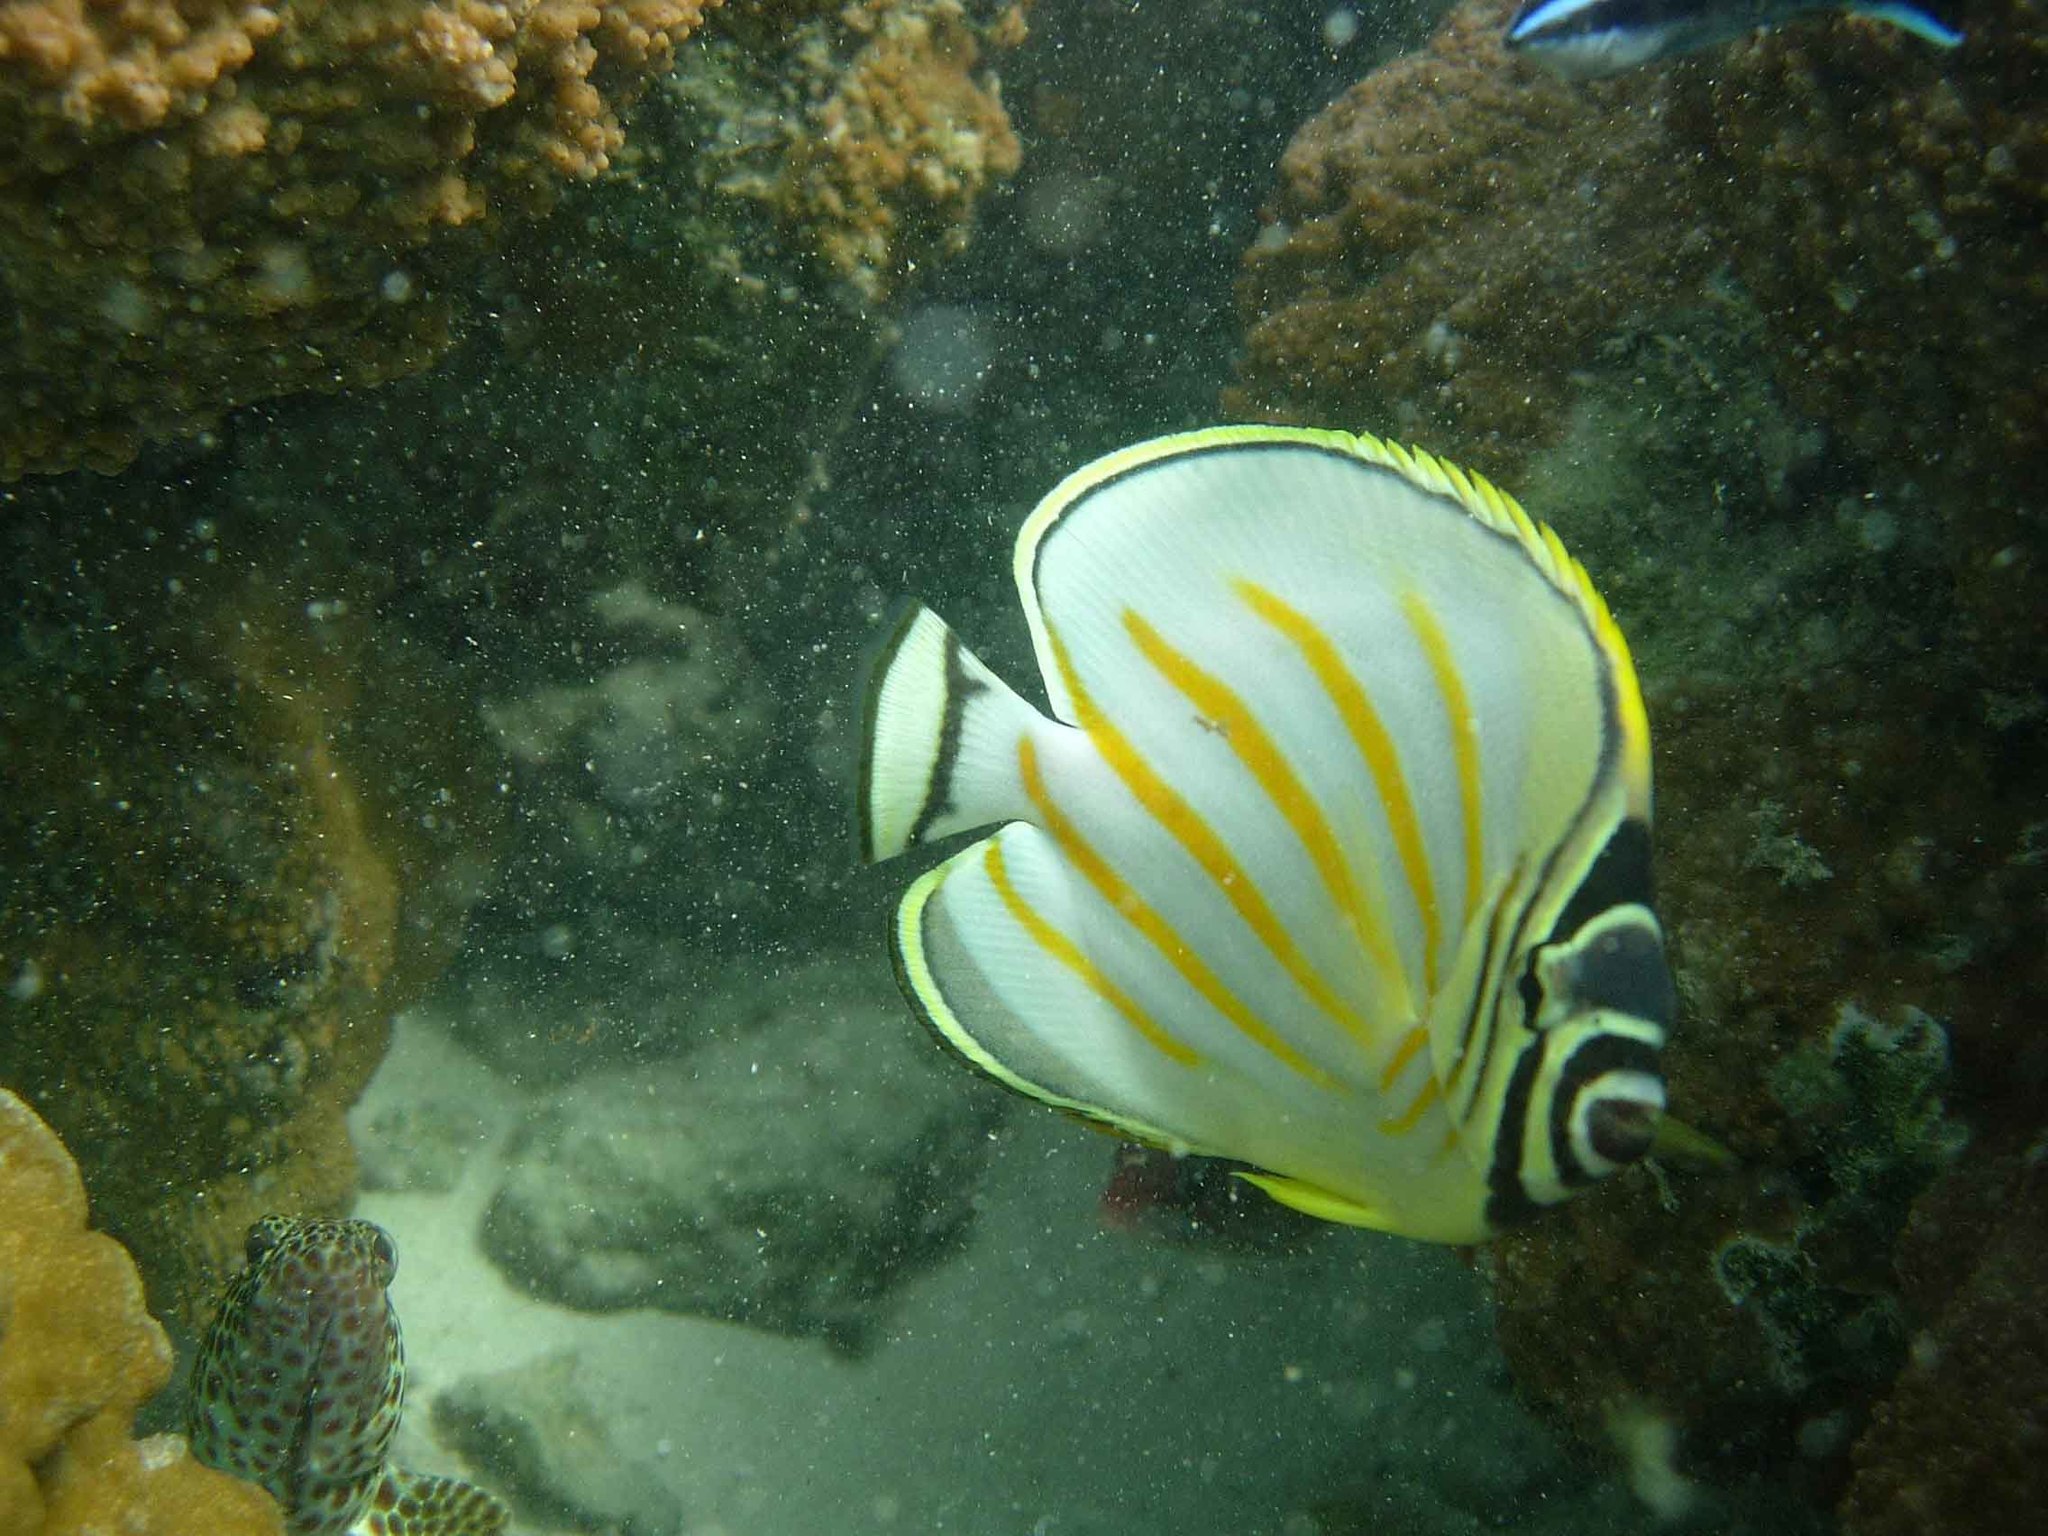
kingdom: Animalia
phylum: Chordata
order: Perciformes
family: Chaetodontidae
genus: Chaetodon
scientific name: Chaetodon ornatissimus
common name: Ornate butterflyfish
